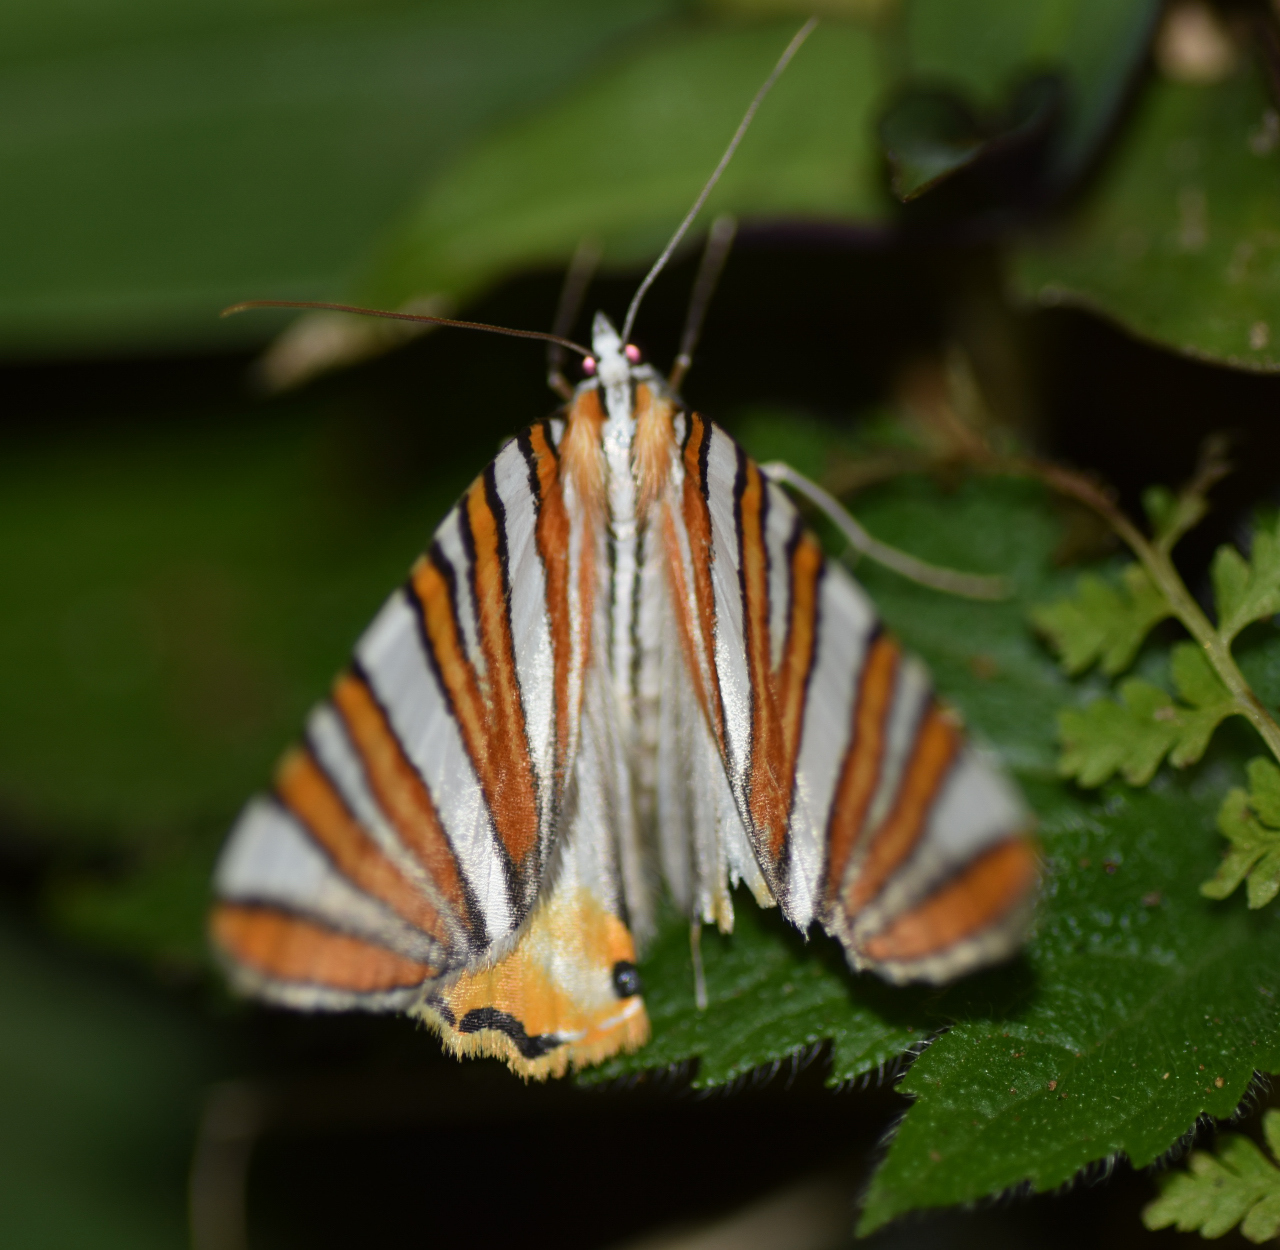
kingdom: Animalia
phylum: Arthropoda
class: Insecta
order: Lepidoptera
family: Geometridae
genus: Pityeja
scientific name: Pityeja histrionaria
